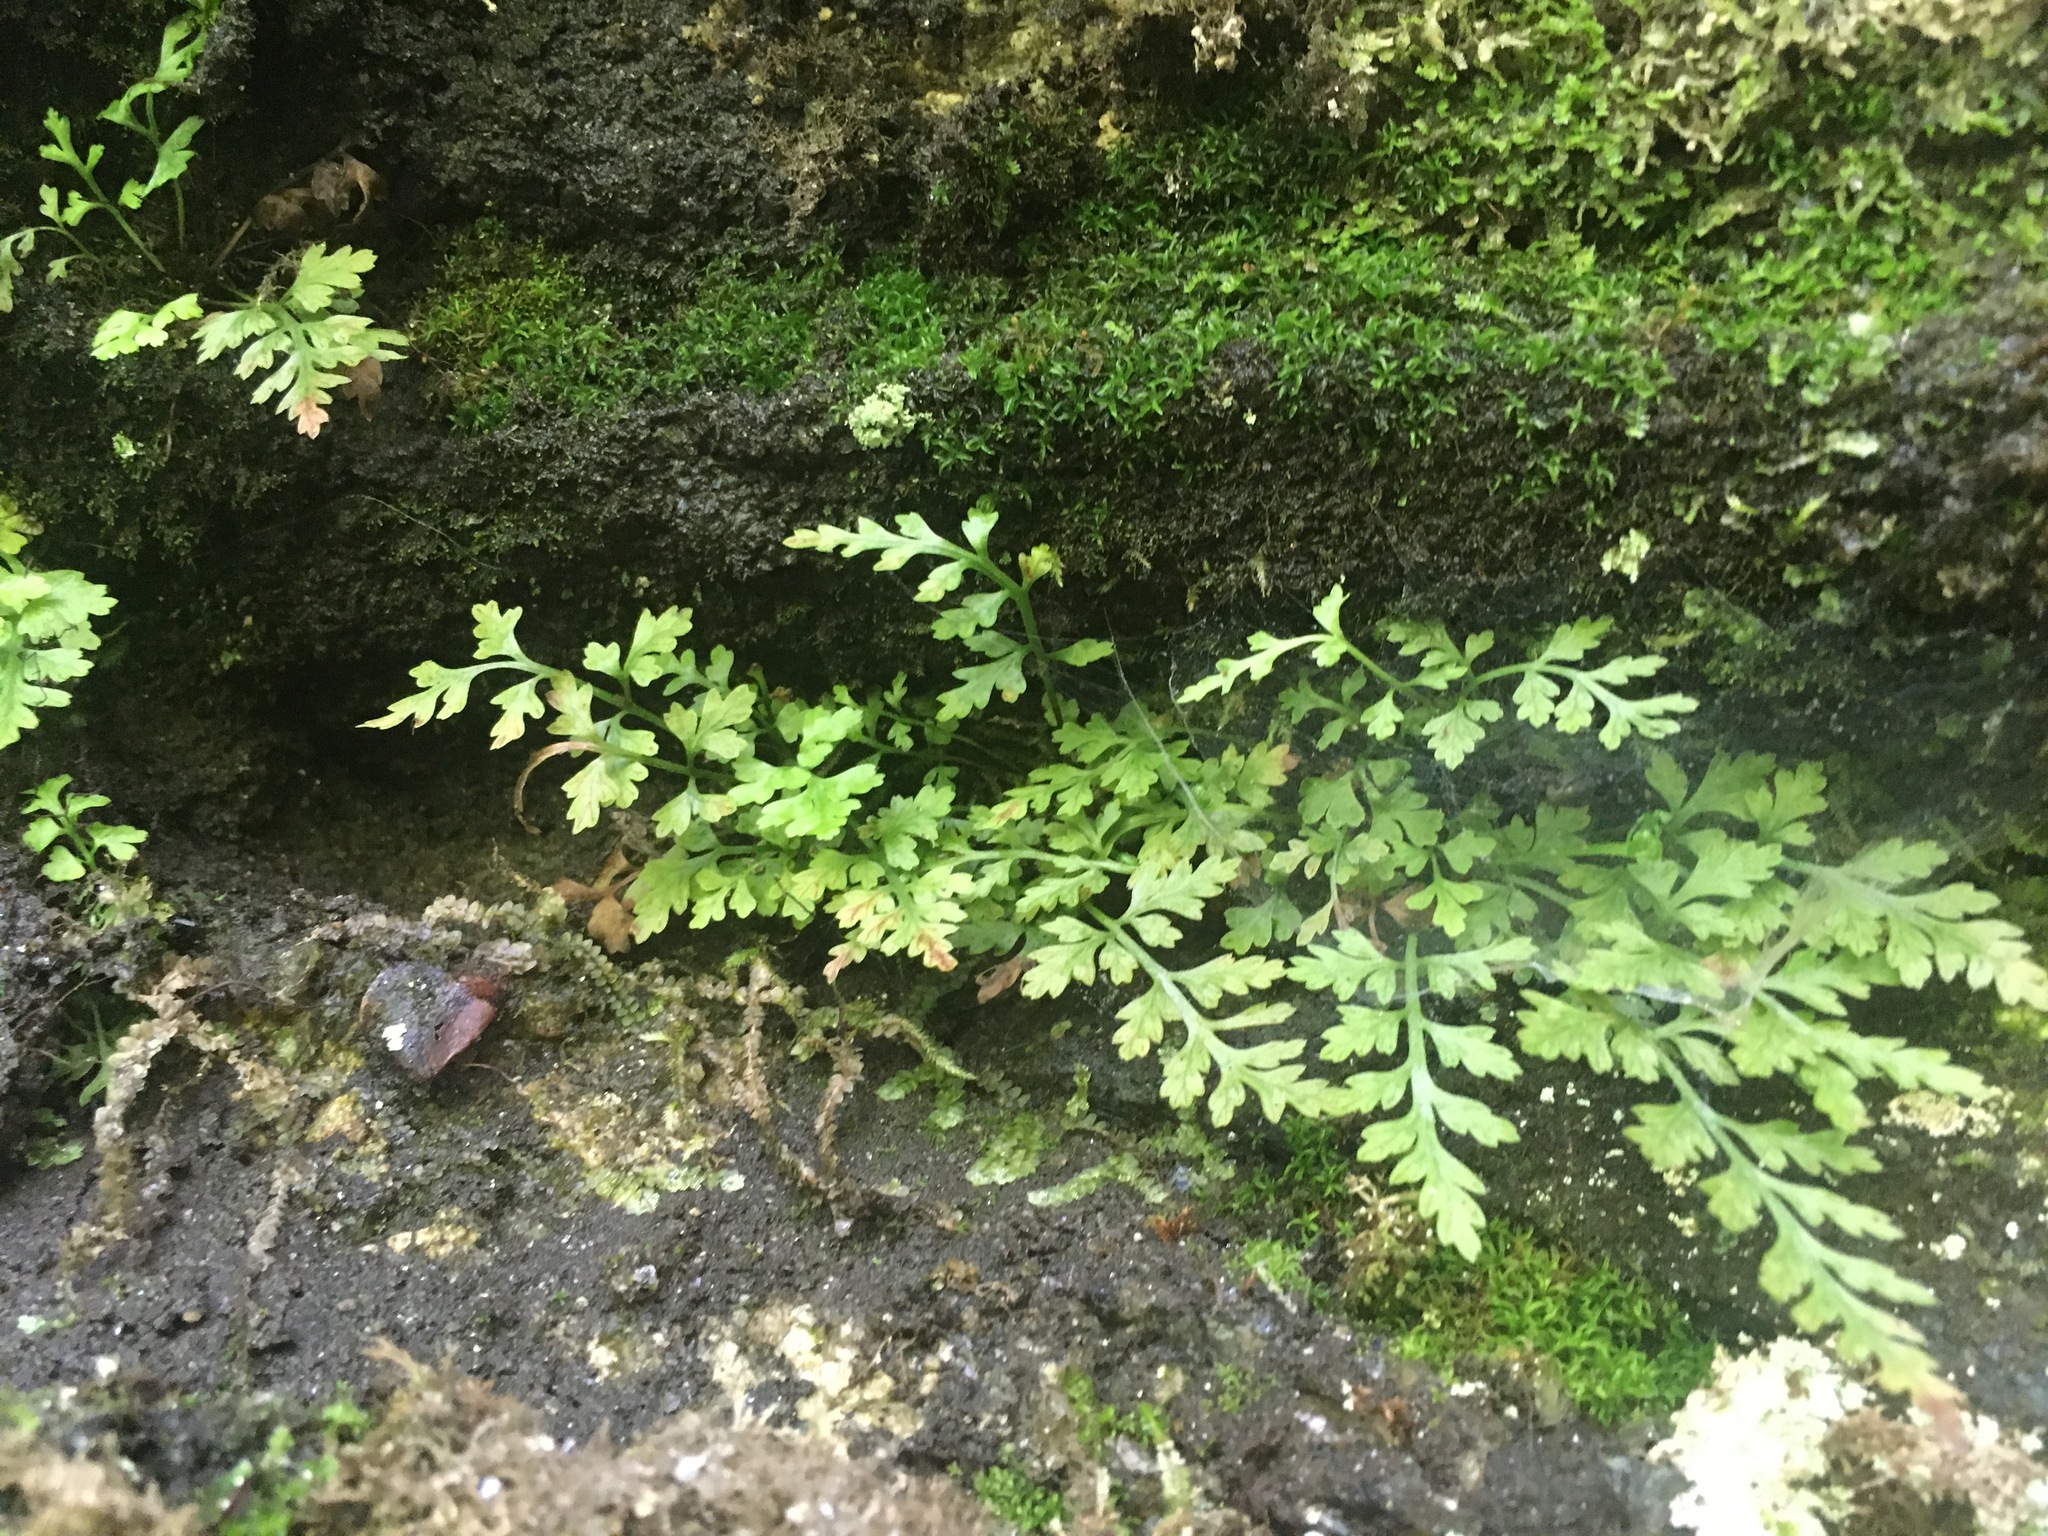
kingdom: Plantae
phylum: Tracheophyta
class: Polypodiopsida
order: Polypodiales
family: Aspleniaceae
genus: Asplenium
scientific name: Asplenium montanum
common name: Mountain spleenwort
